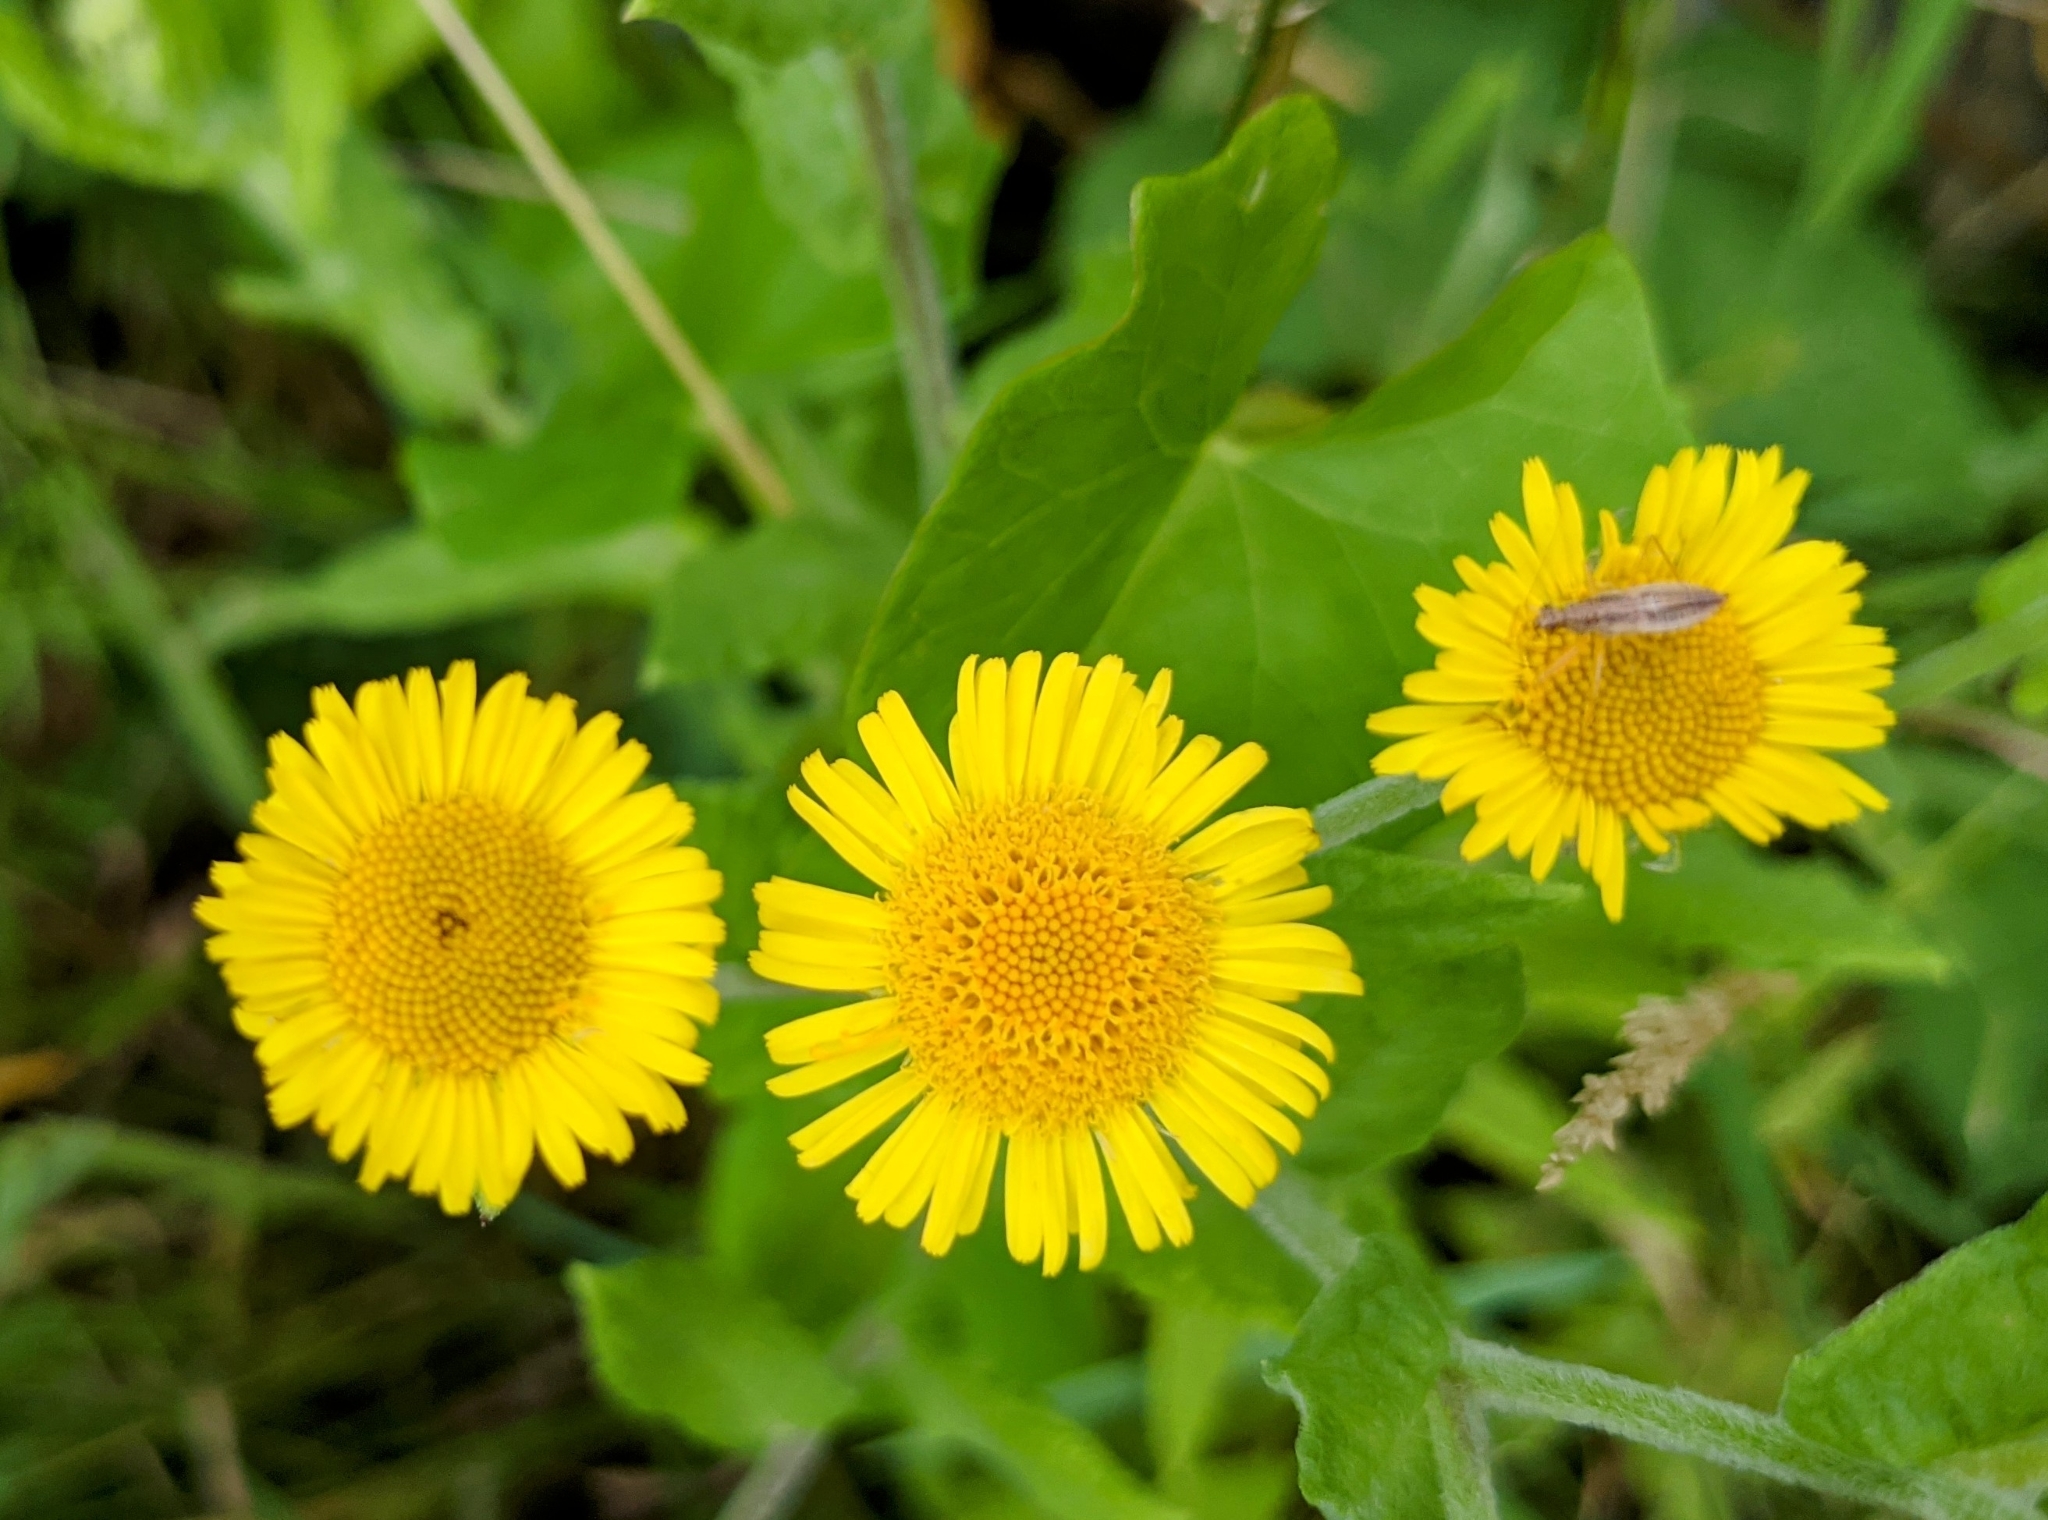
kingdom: Plantae
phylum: Tracheophyta
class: Magnoliopsida
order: Asterales
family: Asteraceae
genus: Pulicaria
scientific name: Pulicaria dysenterica
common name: Common fleabane
